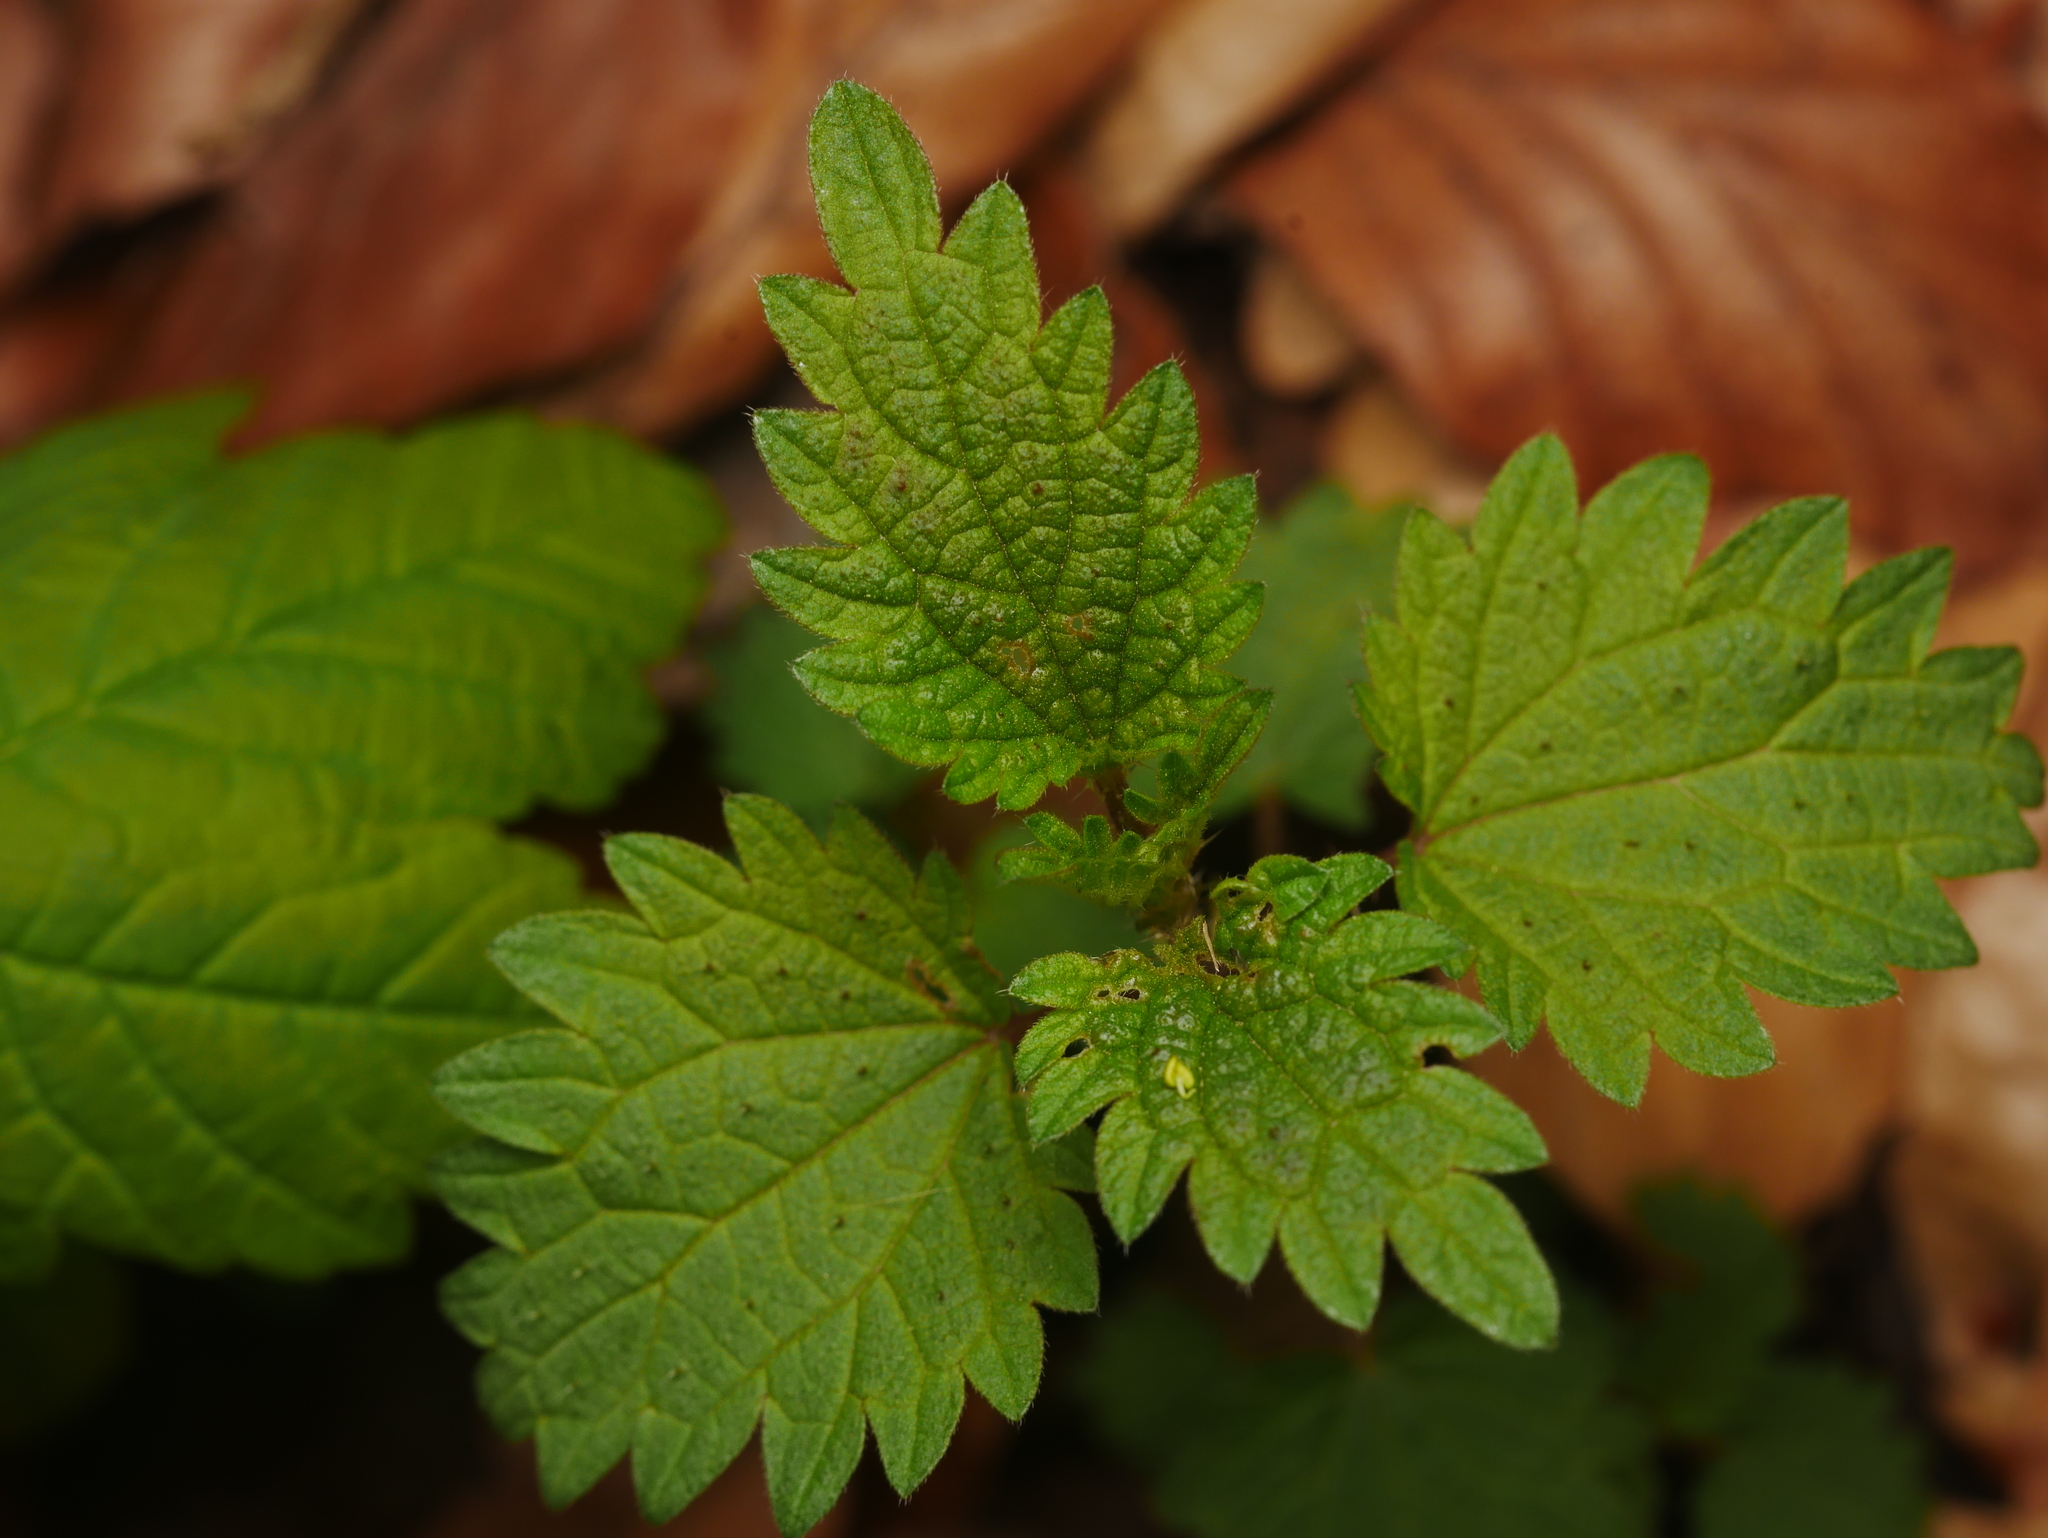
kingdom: Plantae
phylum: Tracheophyta
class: Magnoliopsida
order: Rosales
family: Urticaceae
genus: Urtica
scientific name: Urtica dioica
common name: Common nettle
